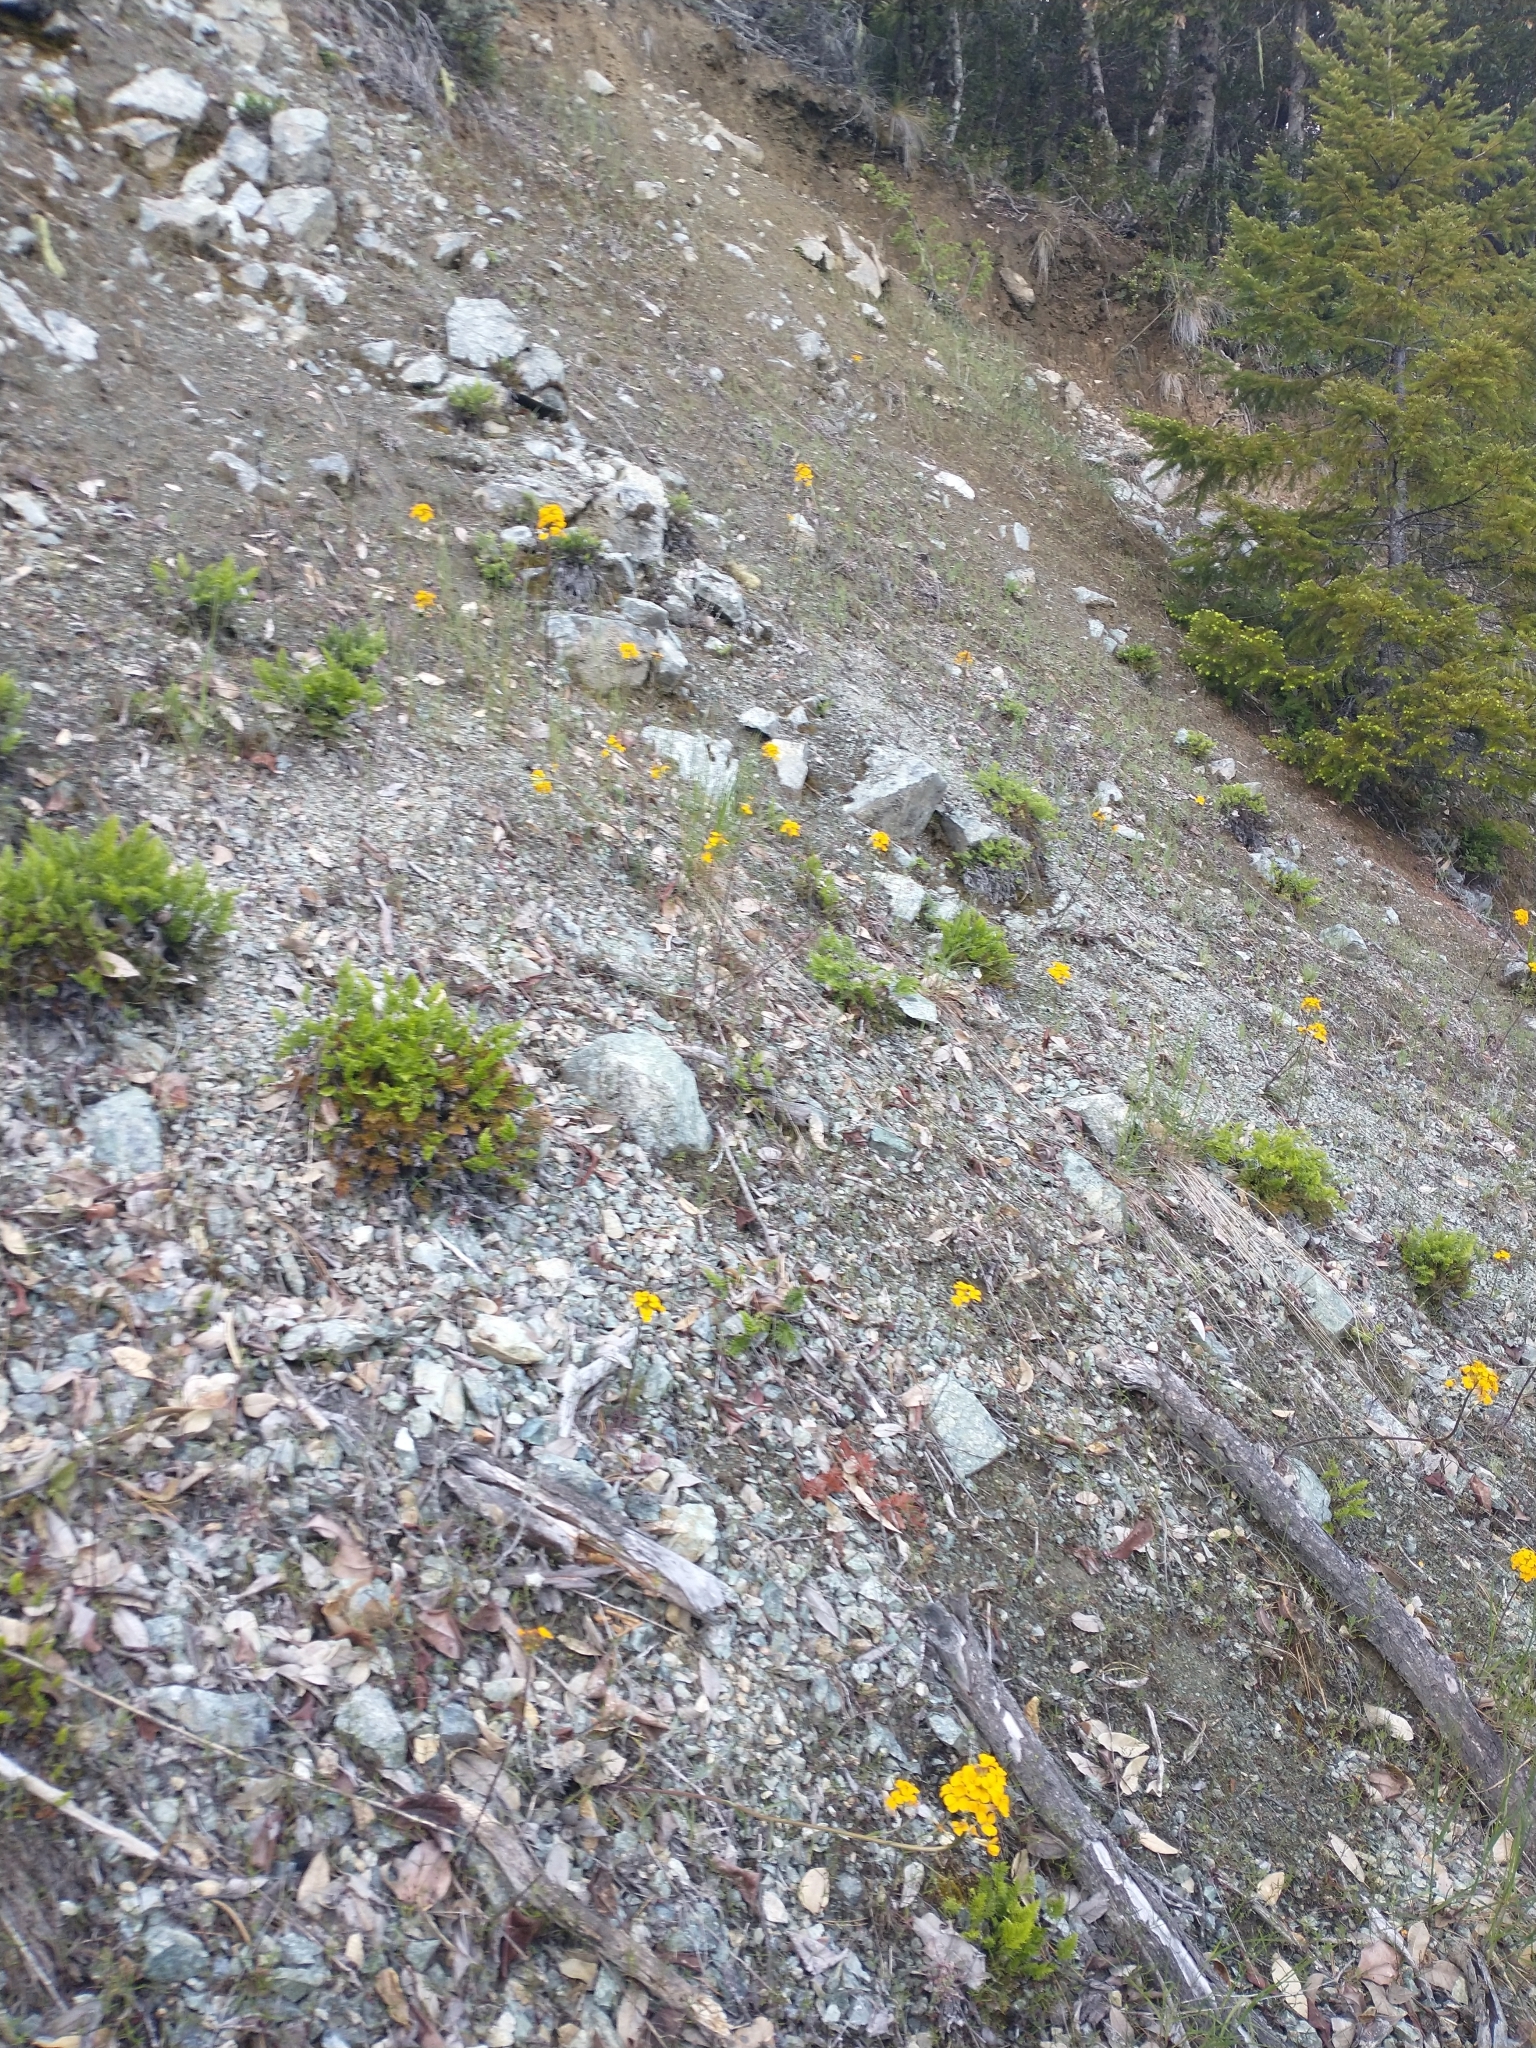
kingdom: Plantae
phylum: Tracheophyta
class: Polypodiopsida
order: Polypodiales
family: Pteridaceae
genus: Aspidotis
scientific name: Aspidotis densa
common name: Indian's dream
